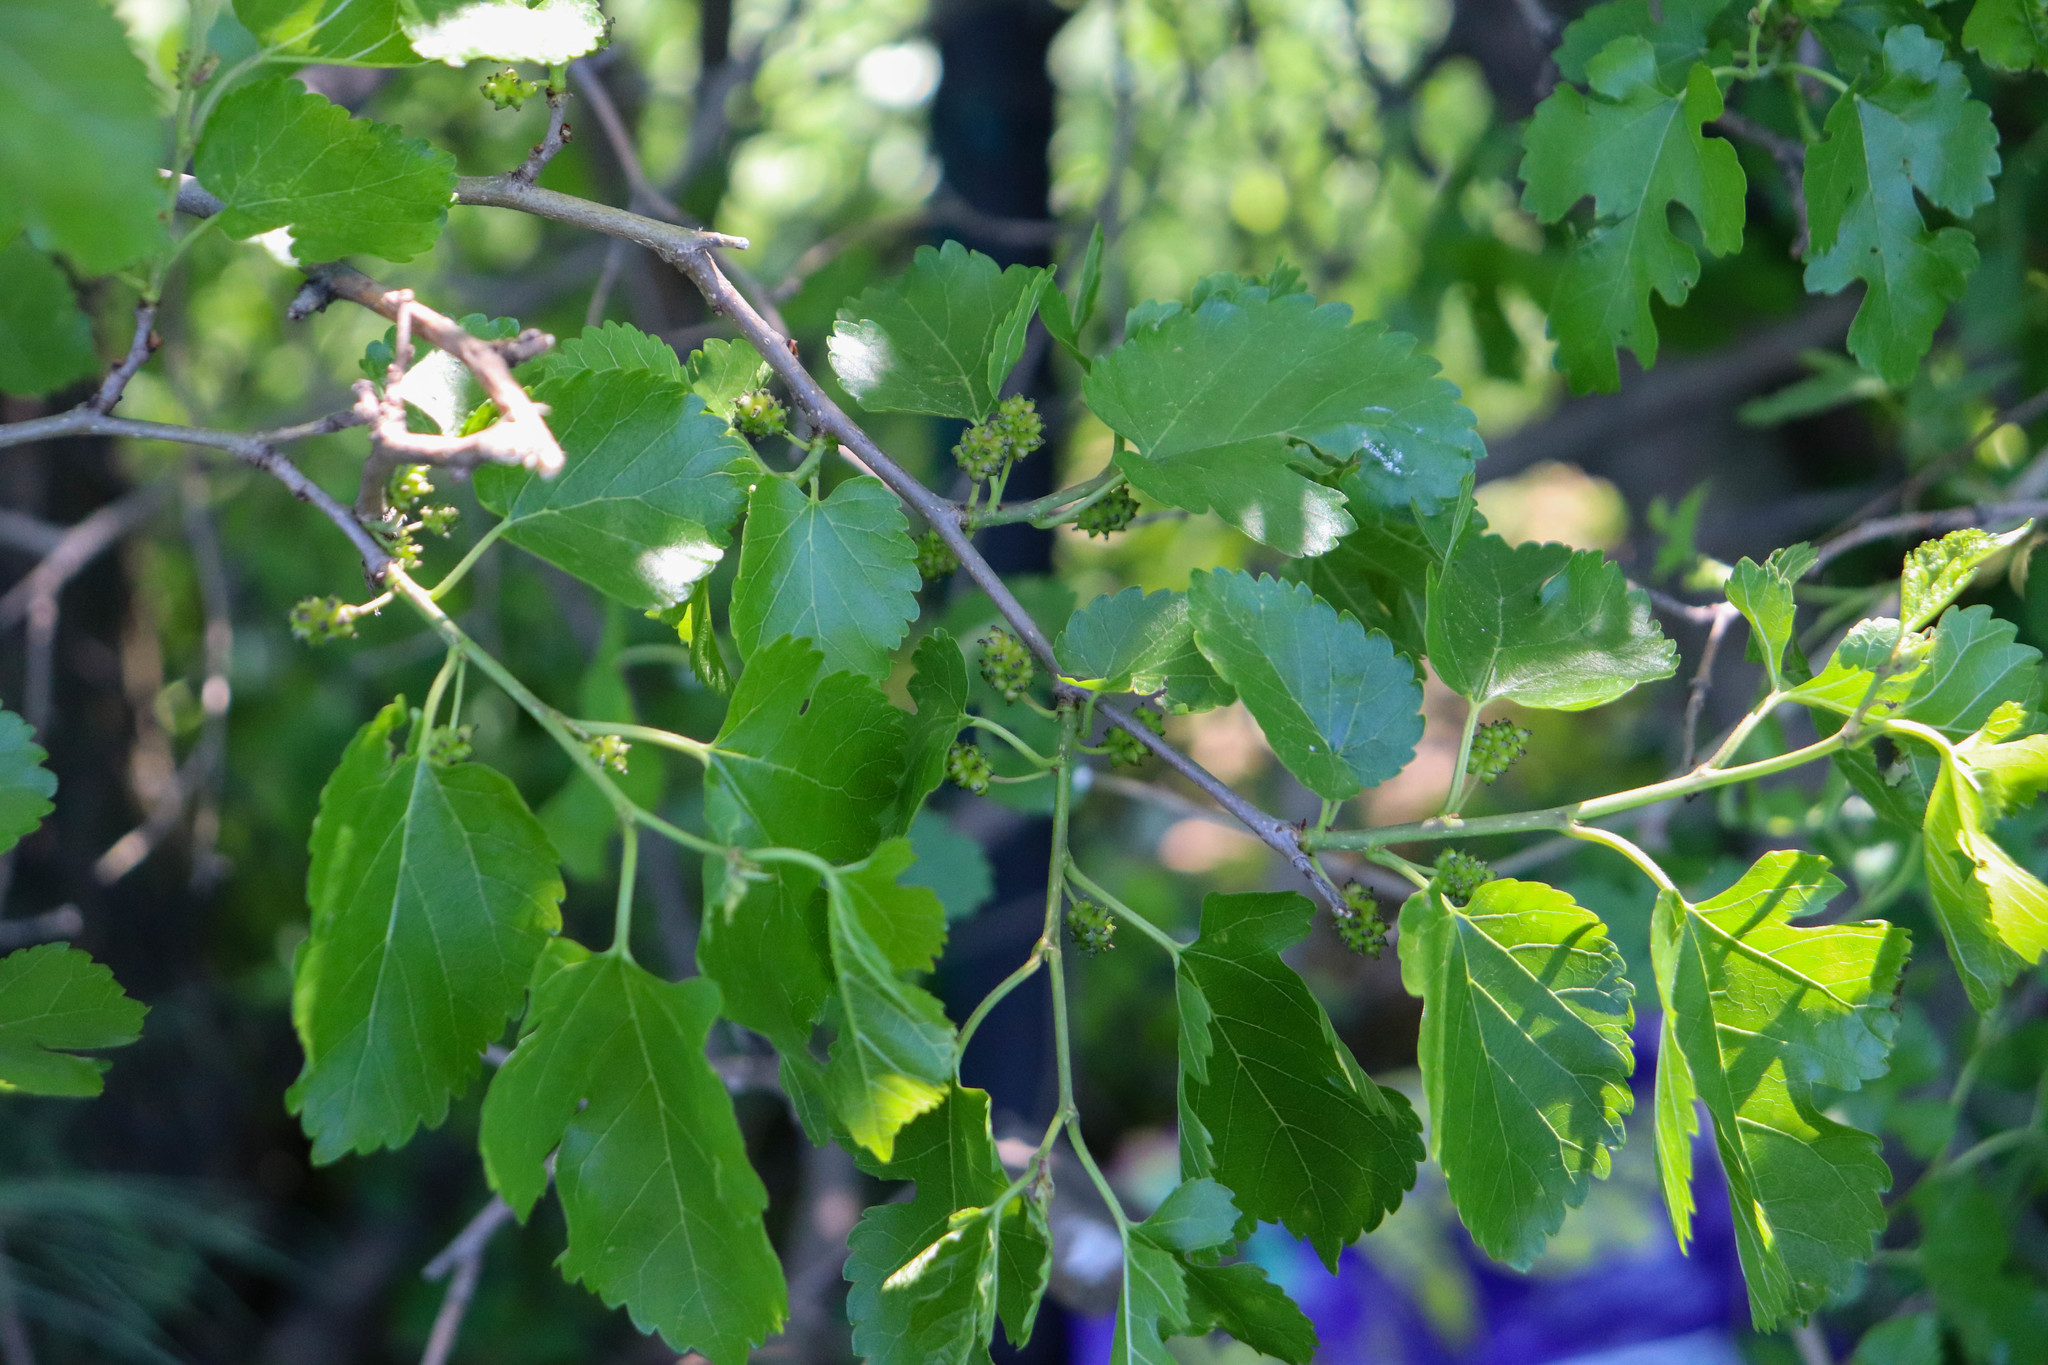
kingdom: Plantae
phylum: Tracheophyta
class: Magnoliopsida
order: Rosales
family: Moraceae
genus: Morus
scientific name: Morus alba
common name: White mulberry
